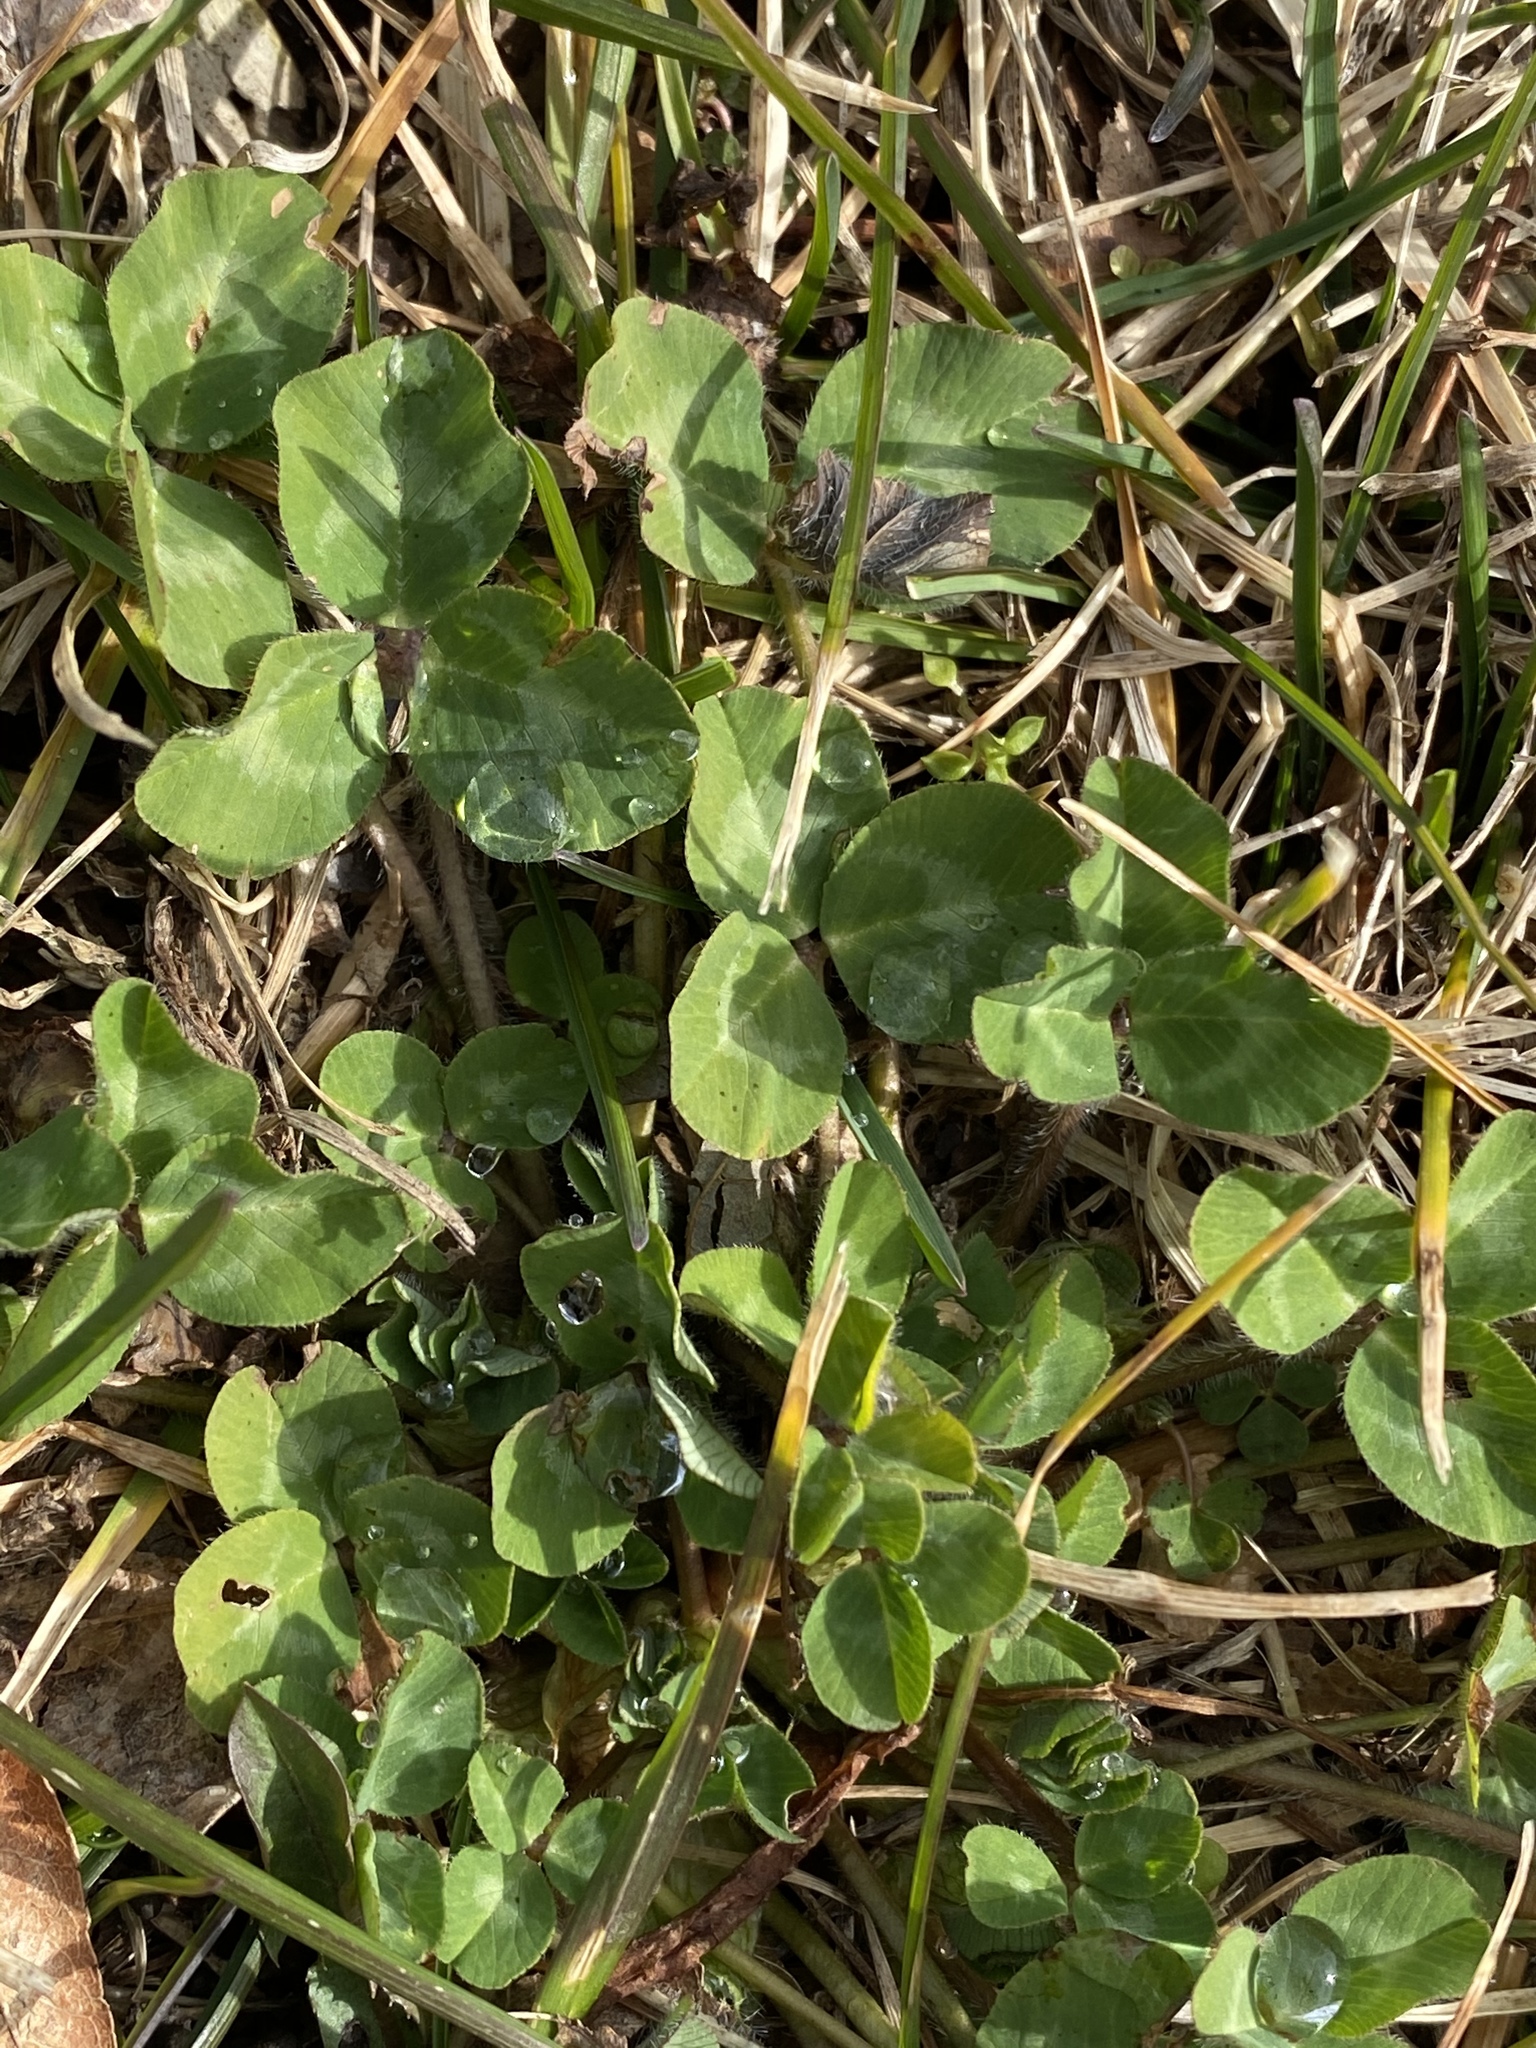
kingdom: Plantae
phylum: Tracheophyta
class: Magnoliopsida
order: Fabales
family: Fabaceae
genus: Trifolium
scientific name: Trifolium pratense
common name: Red clover
